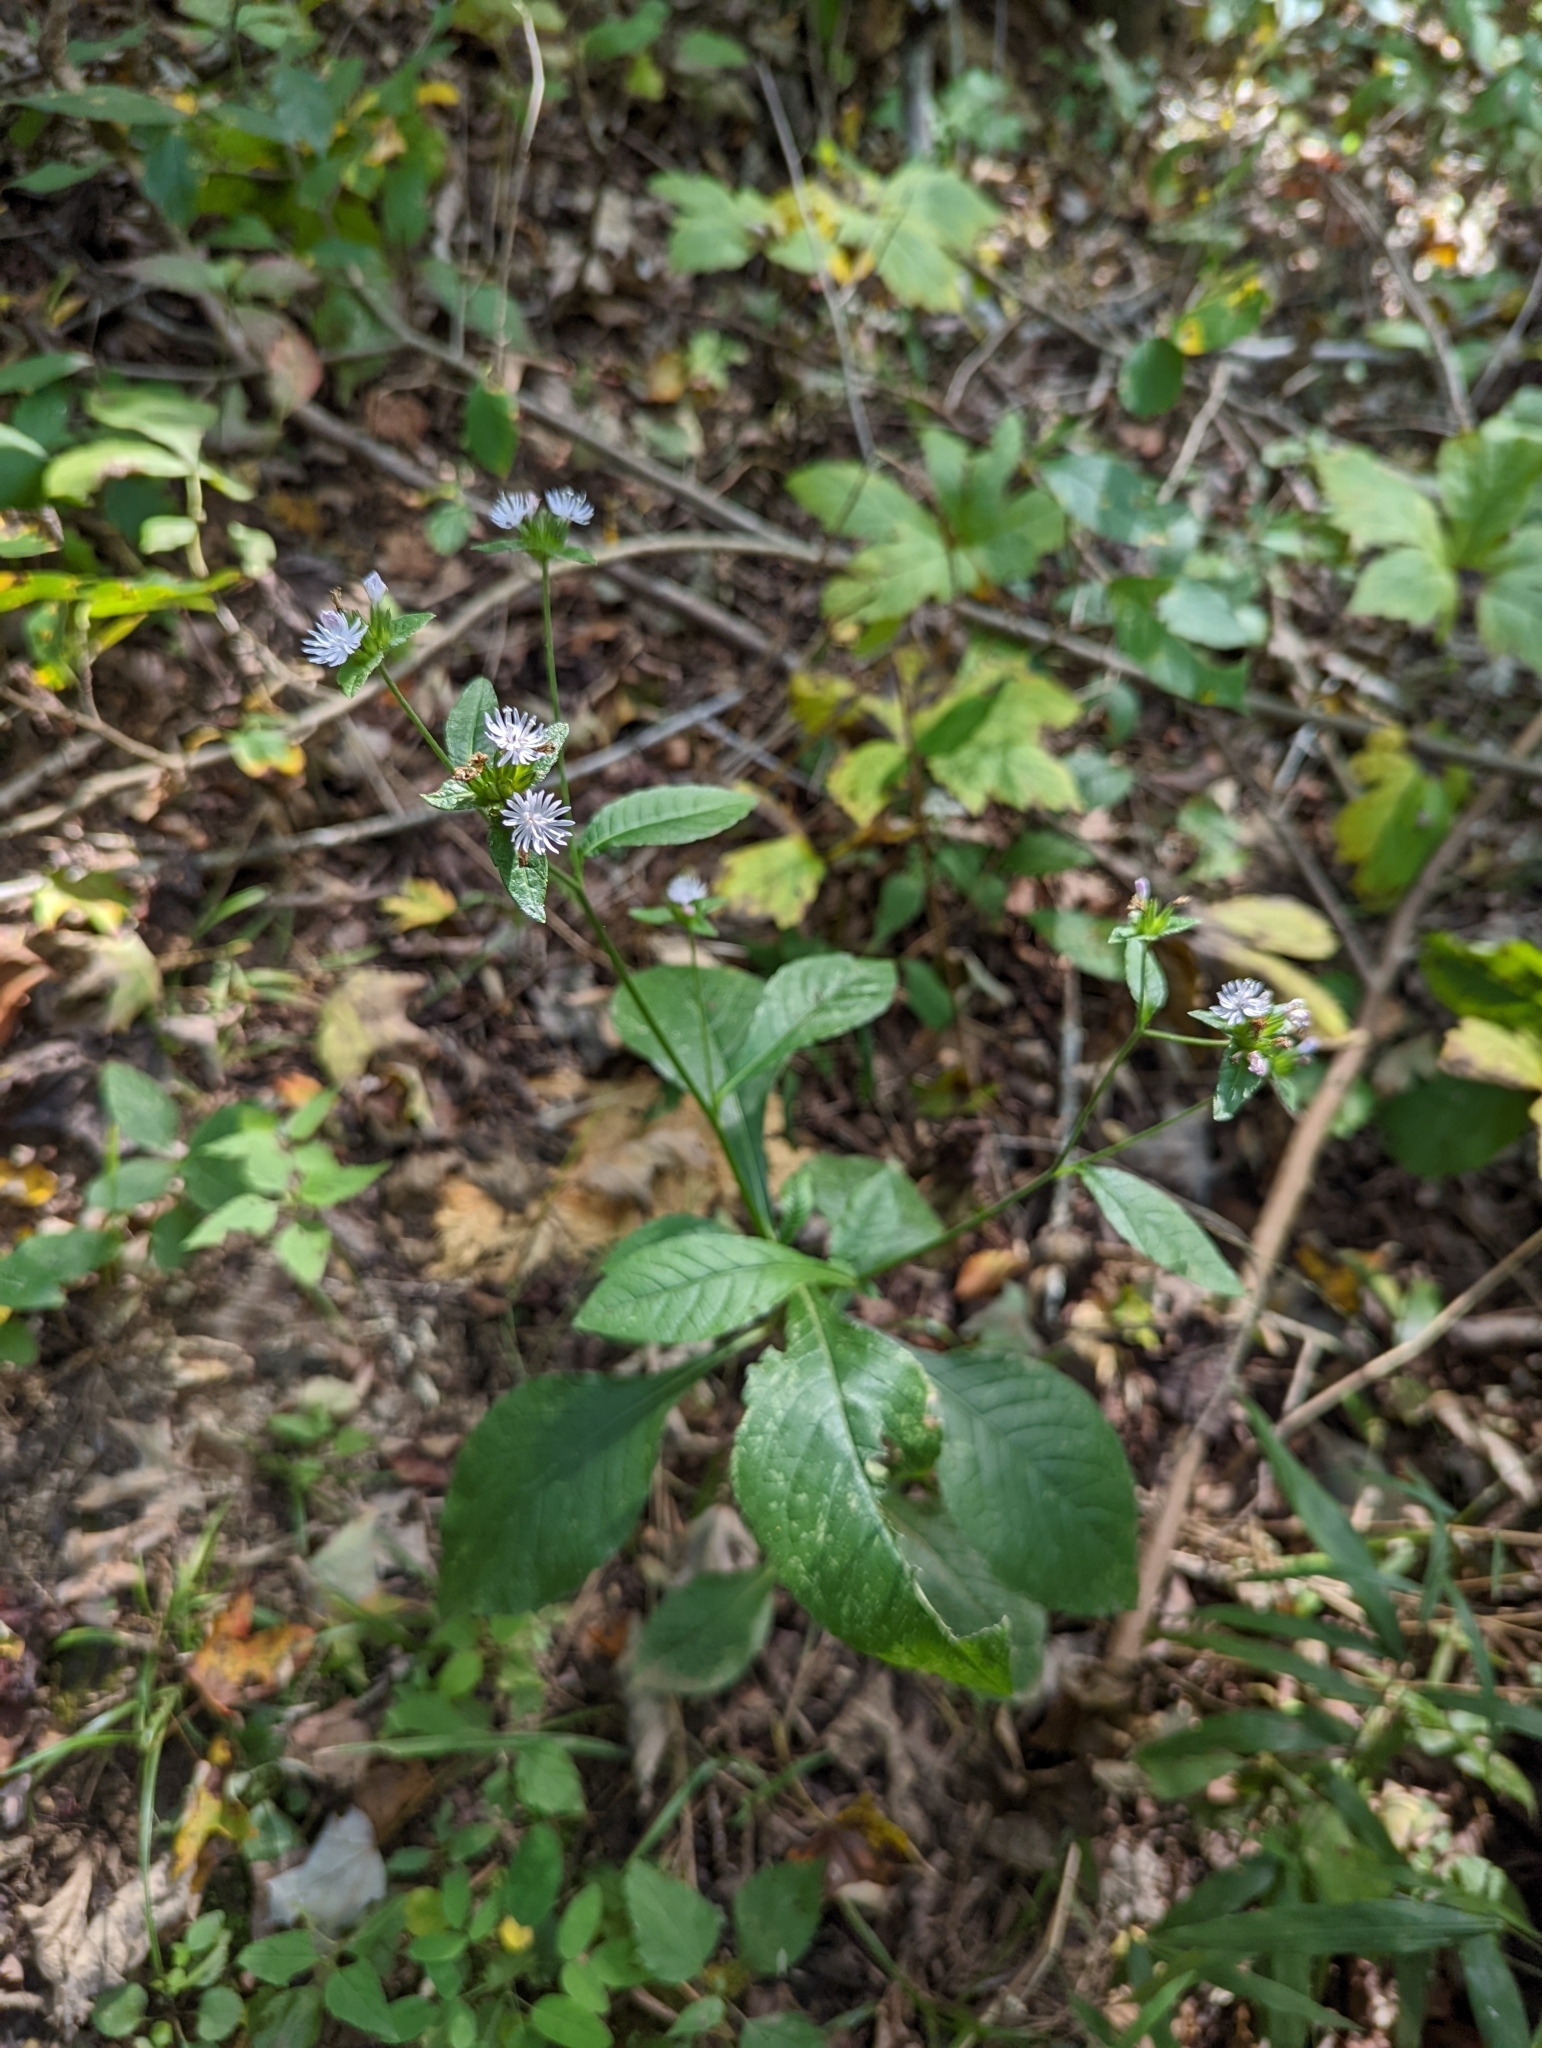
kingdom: Plantae
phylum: Tracheophyta
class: Magnoliopsida
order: Asterales
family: Asteraceae
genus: Elephantopus
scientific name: Elephantopus carolinianus
